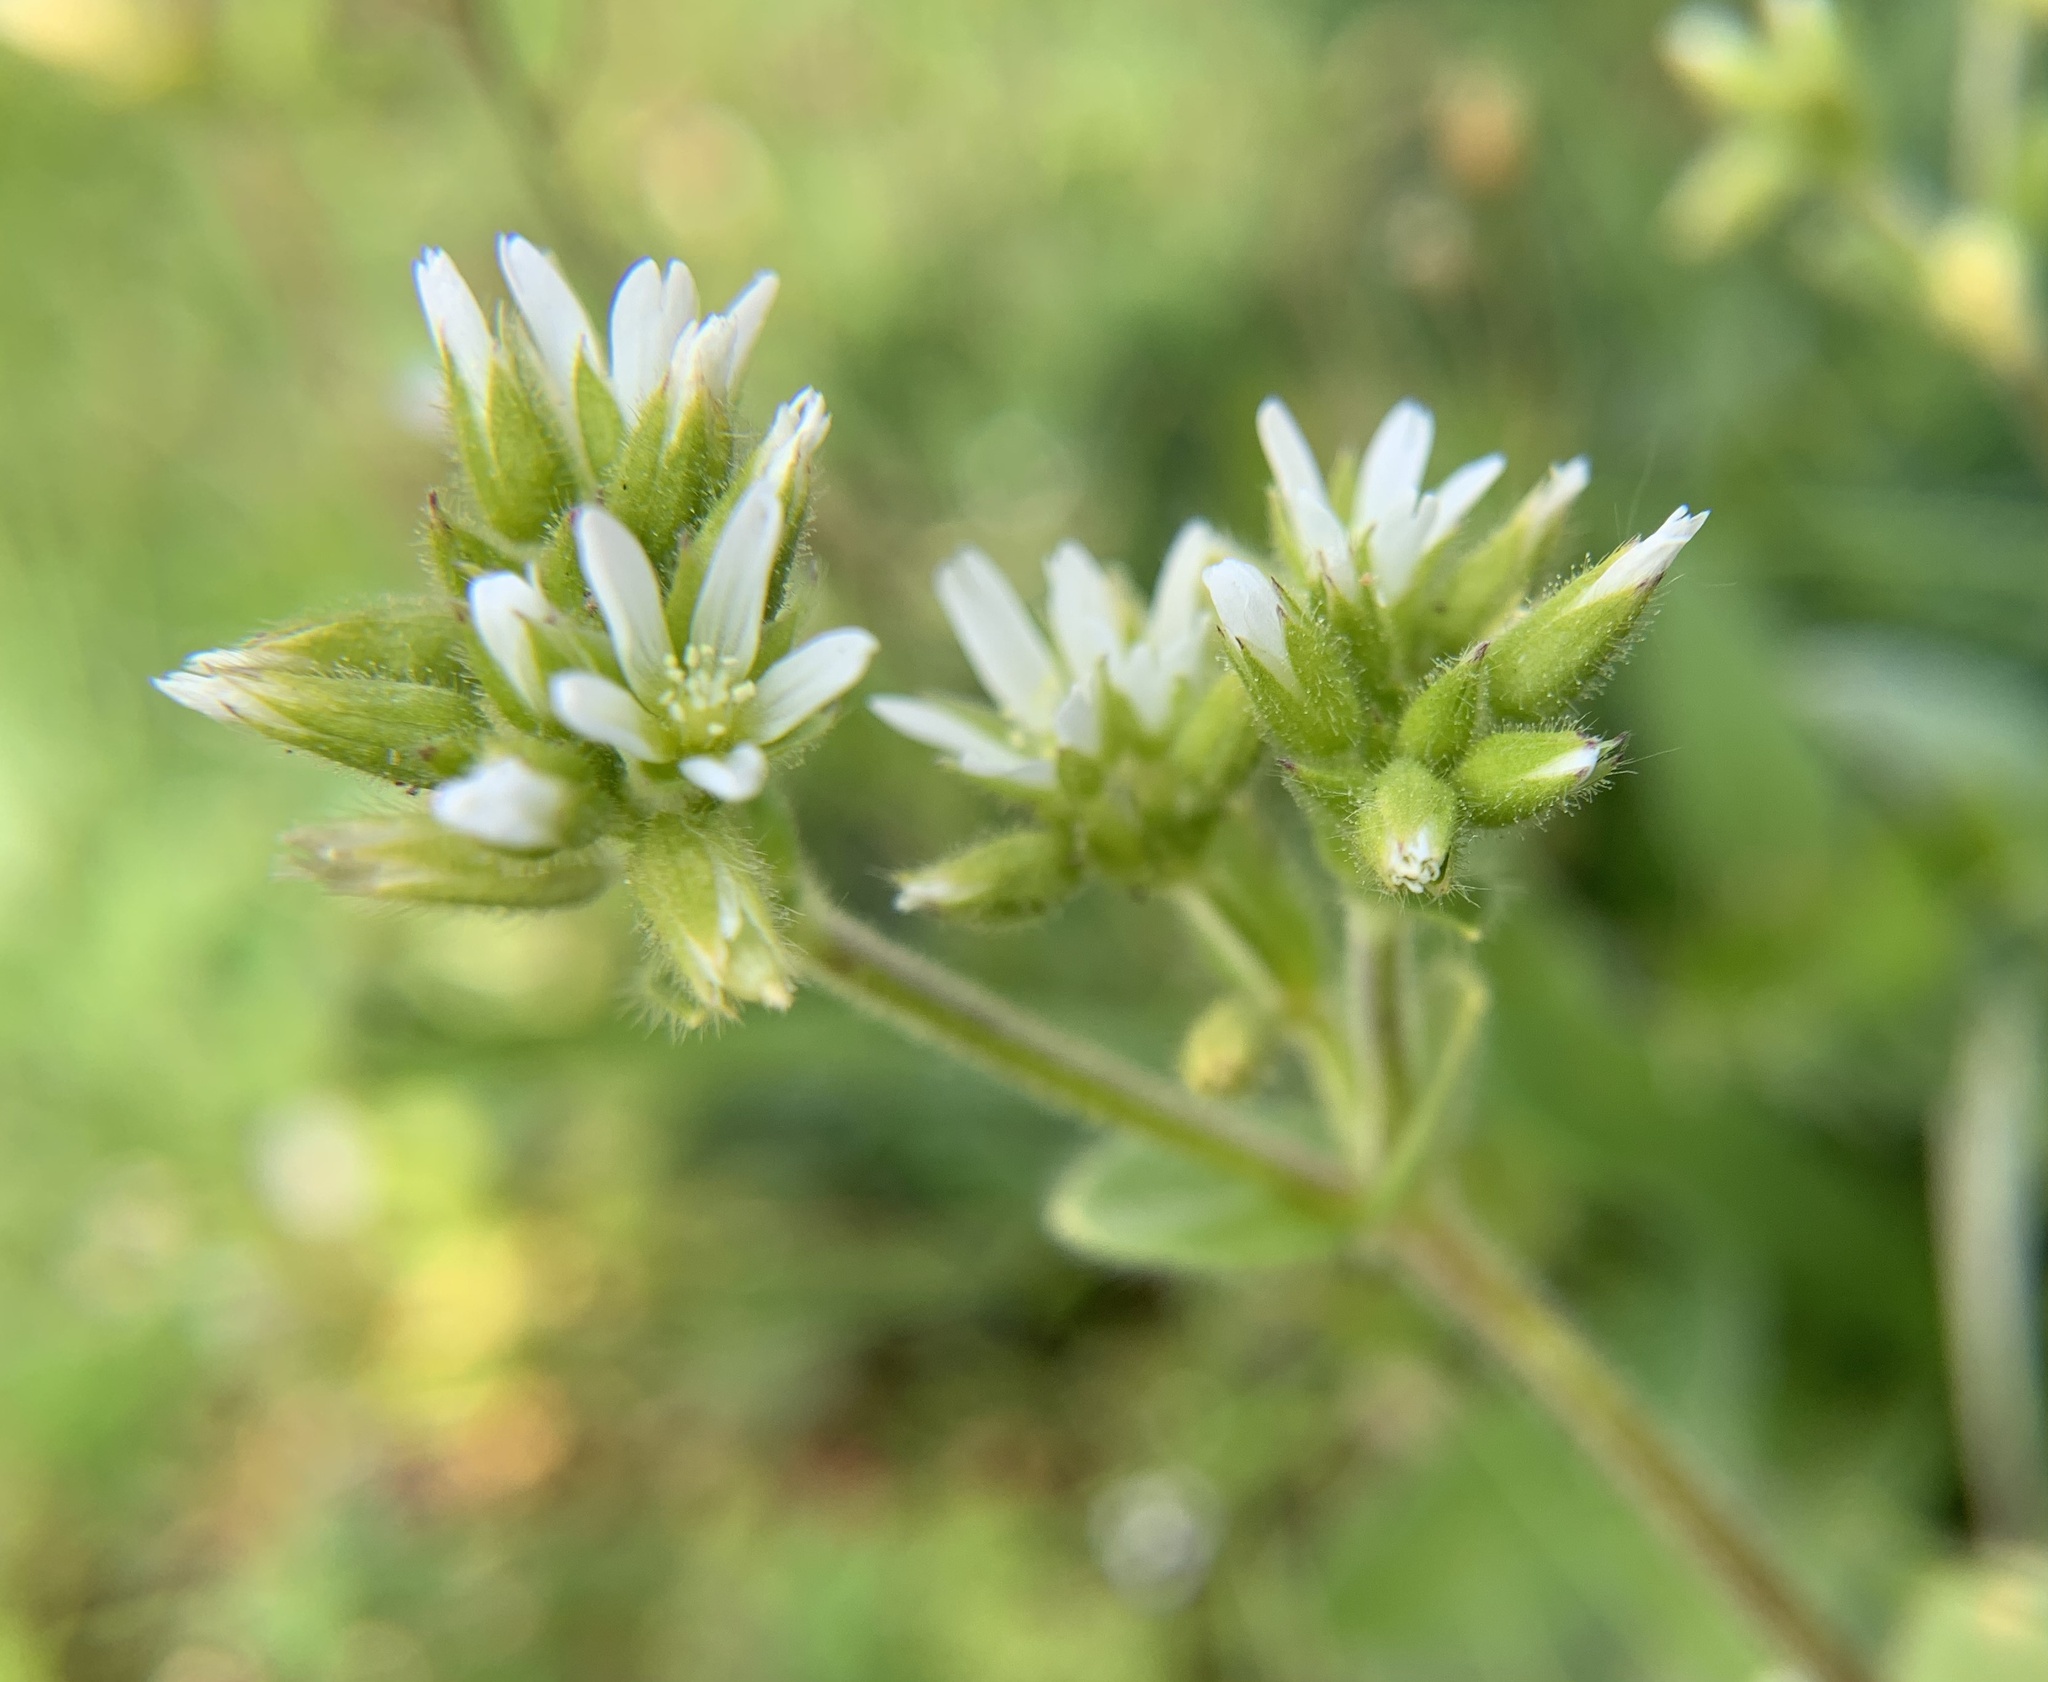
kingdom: Plantae
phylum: Tracheophyta
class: Magnoliopsida
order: Caryophyllales
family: Caryophyllaceae
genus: Cerastium
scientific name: Cerastium glomeratum
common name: Sticky chickweed
